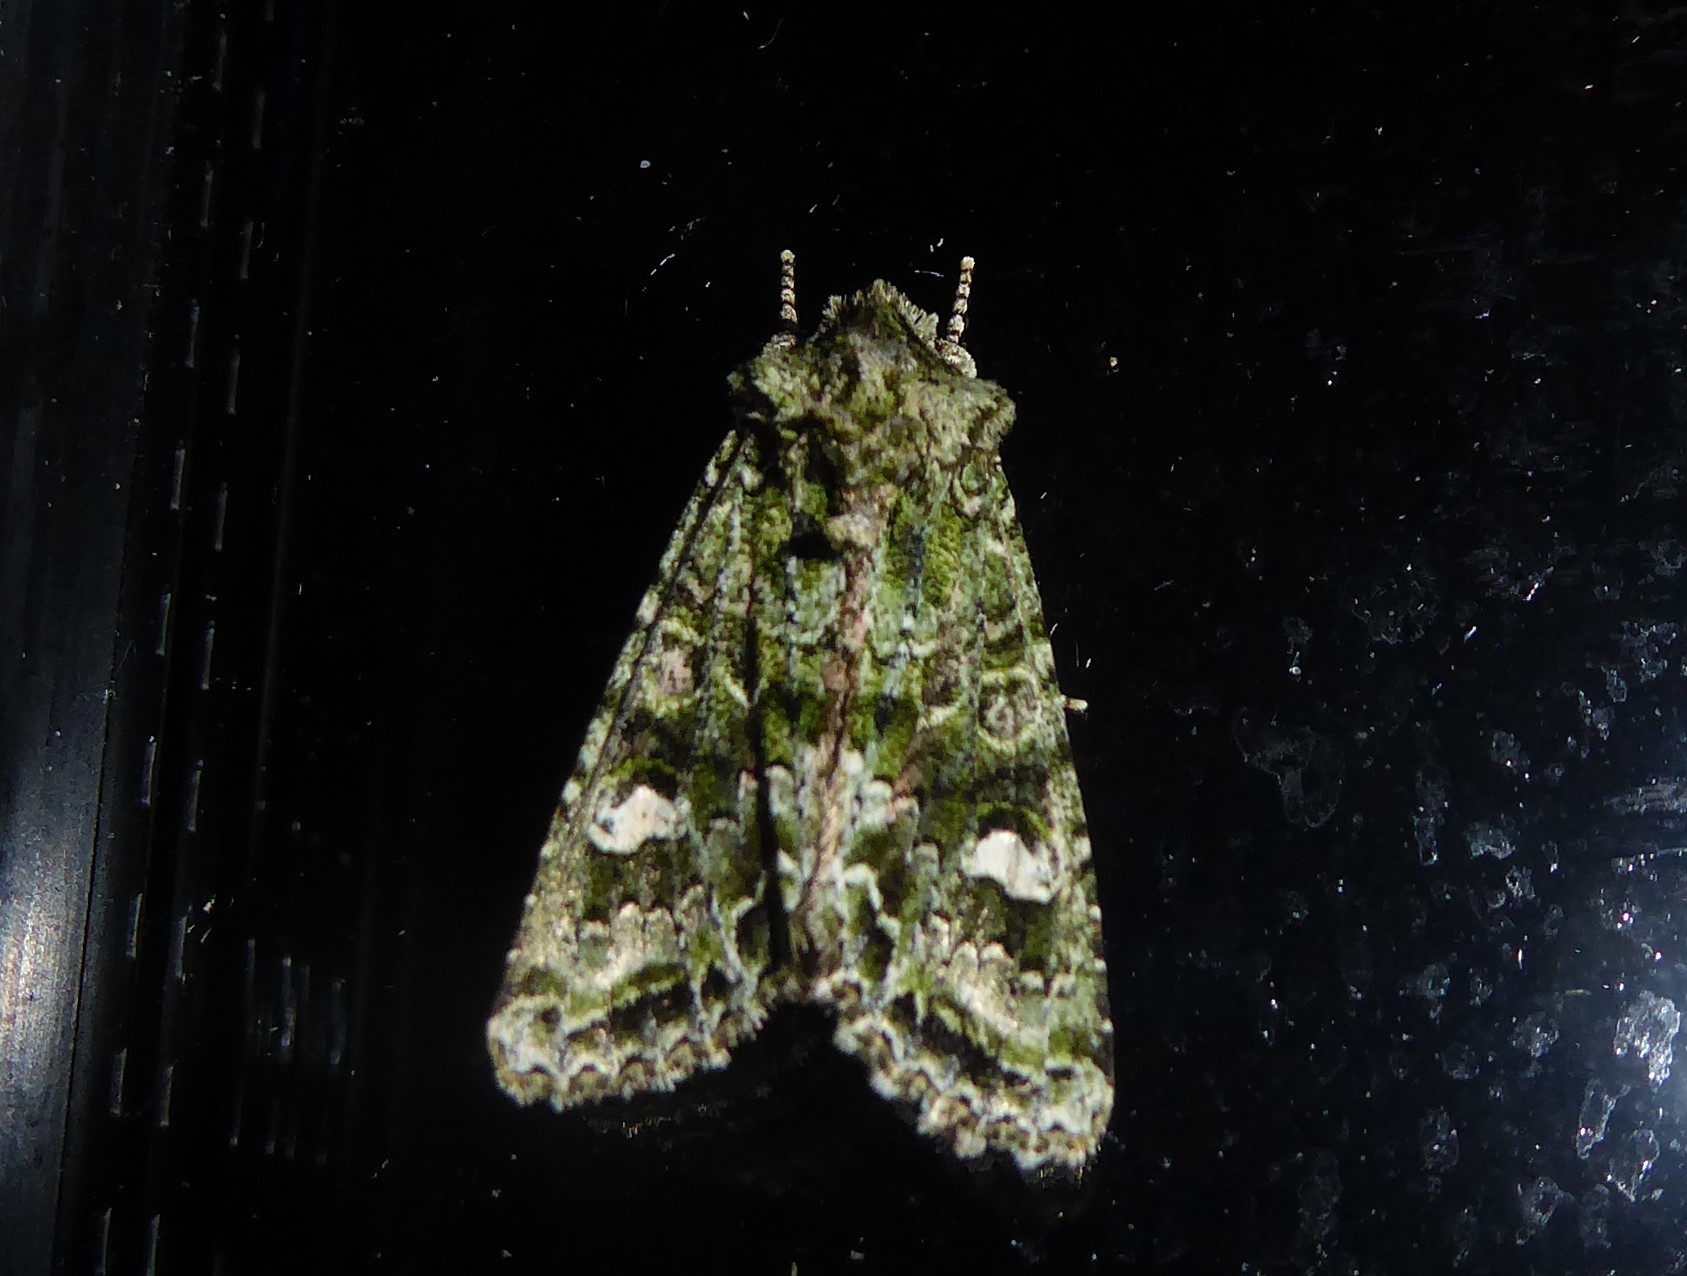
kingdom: Animalia
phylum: Arthropoda
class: Insecta
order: Lepidoptera
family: Noctuidae
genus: Ichneutica
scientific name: Ichneutica
